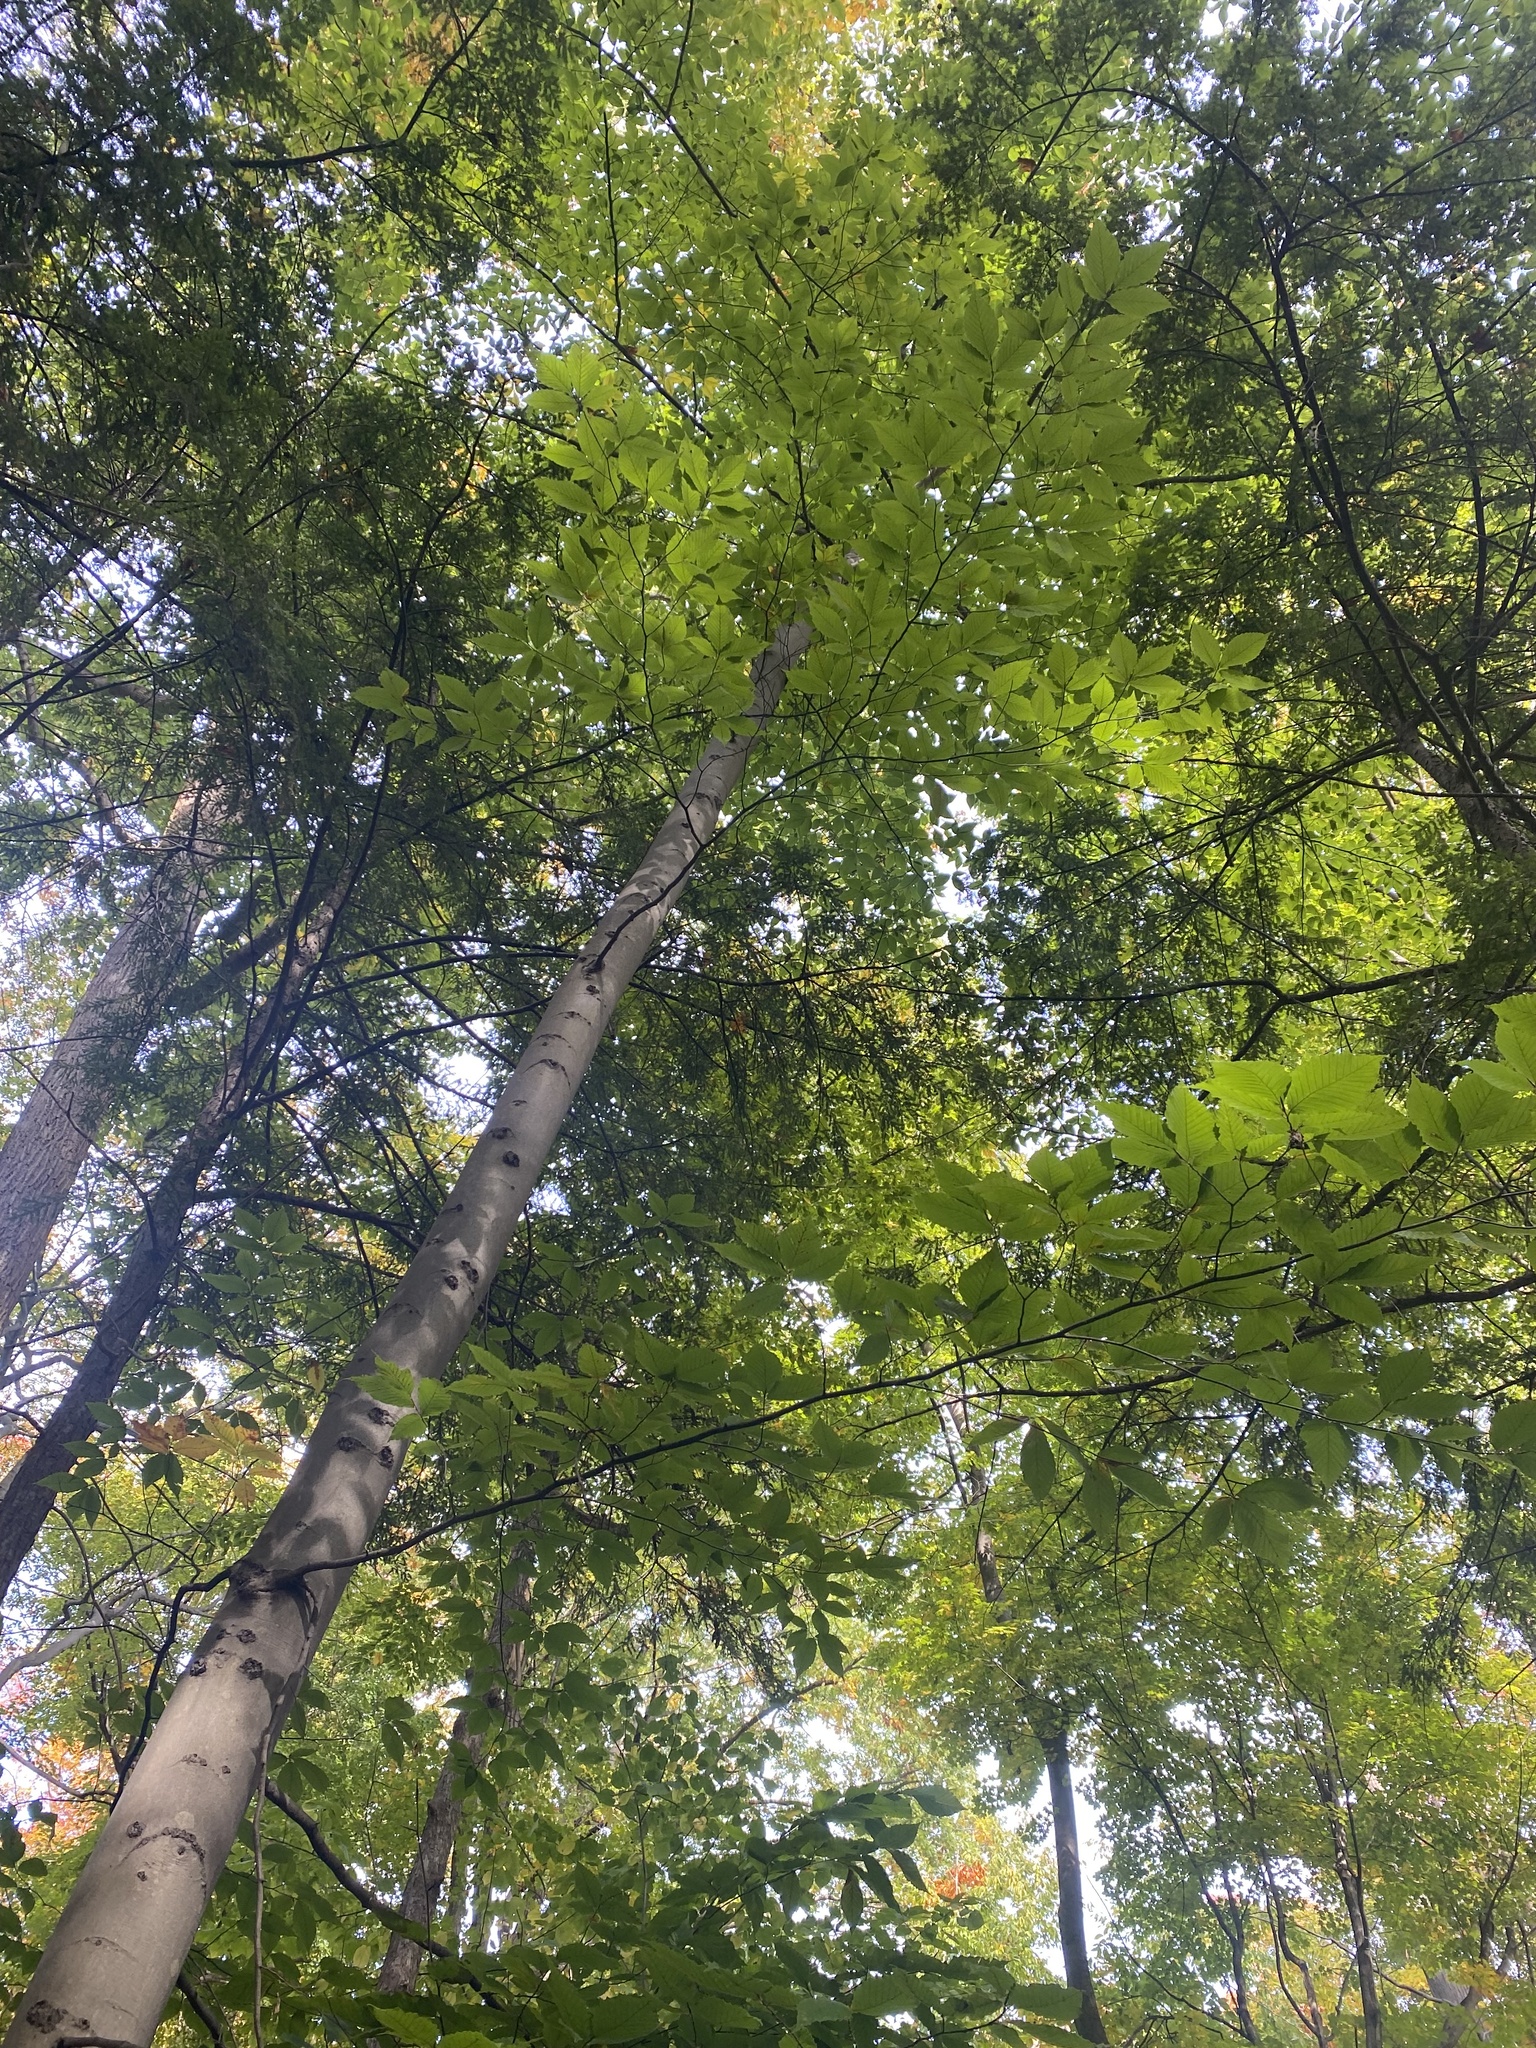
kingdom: Plantae
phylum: Tracheophyta
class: Magnoliopsida
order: Fagales
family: Fagaceae
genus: Fagus
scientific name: Fagus grandifolia
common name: American beech
